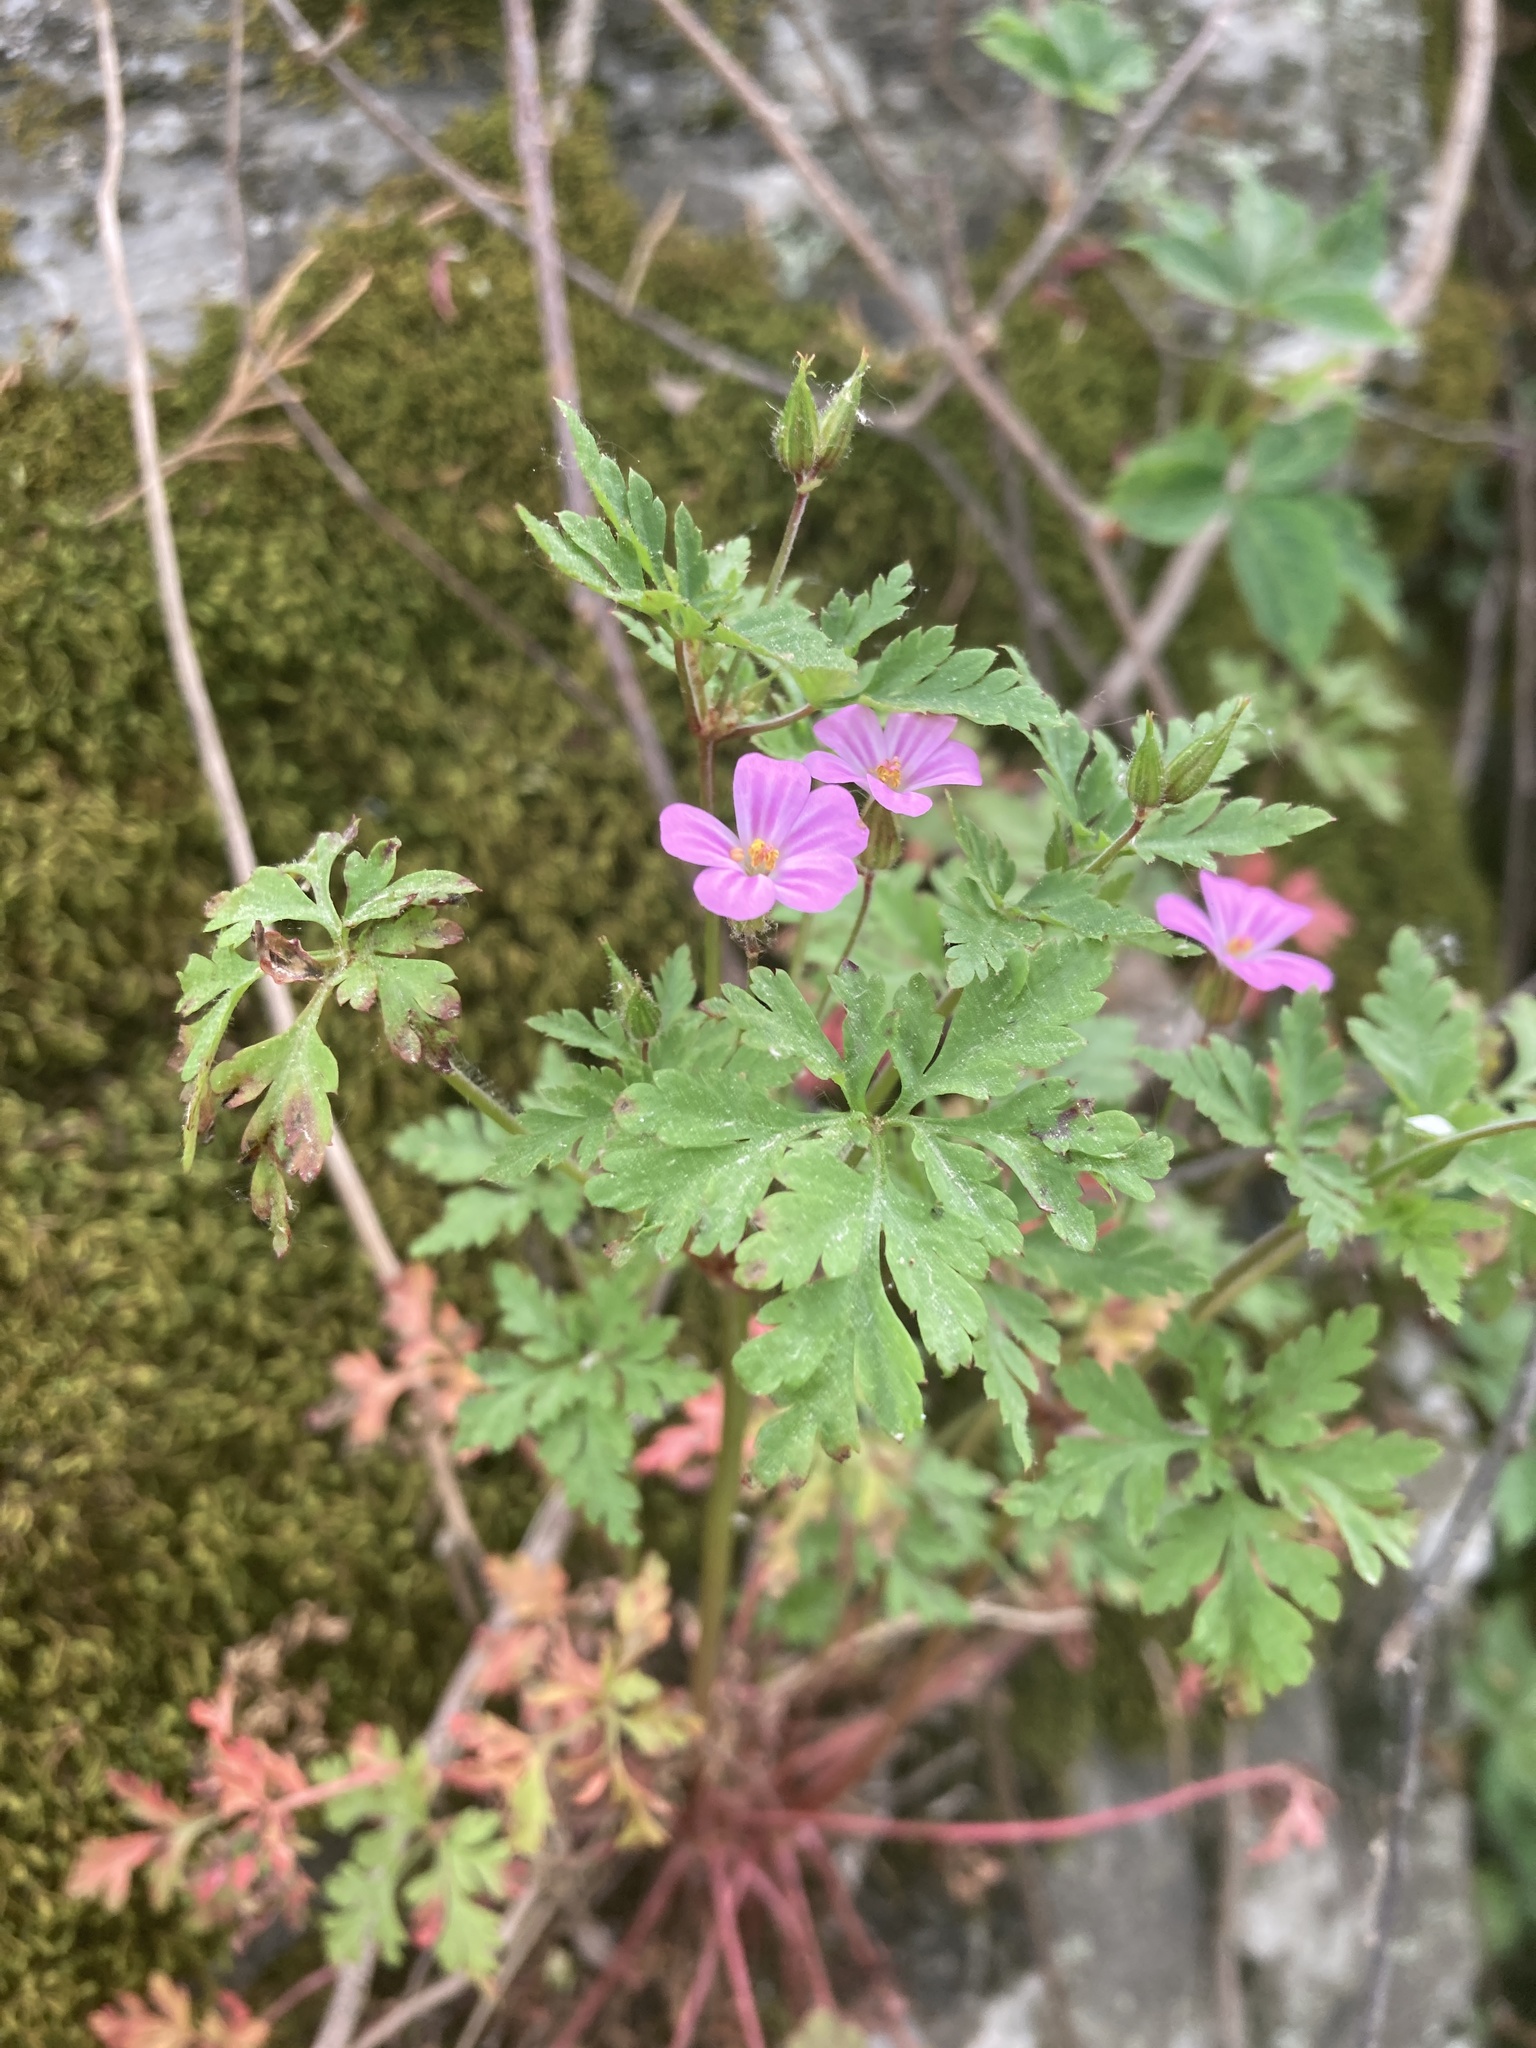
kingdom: Plantae
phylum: Tracheophyta
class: Magnoliopsida
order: Geraniales
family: Geraniaceae
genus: Geranium
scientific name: Geranium robertianum
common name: Herb-robert
